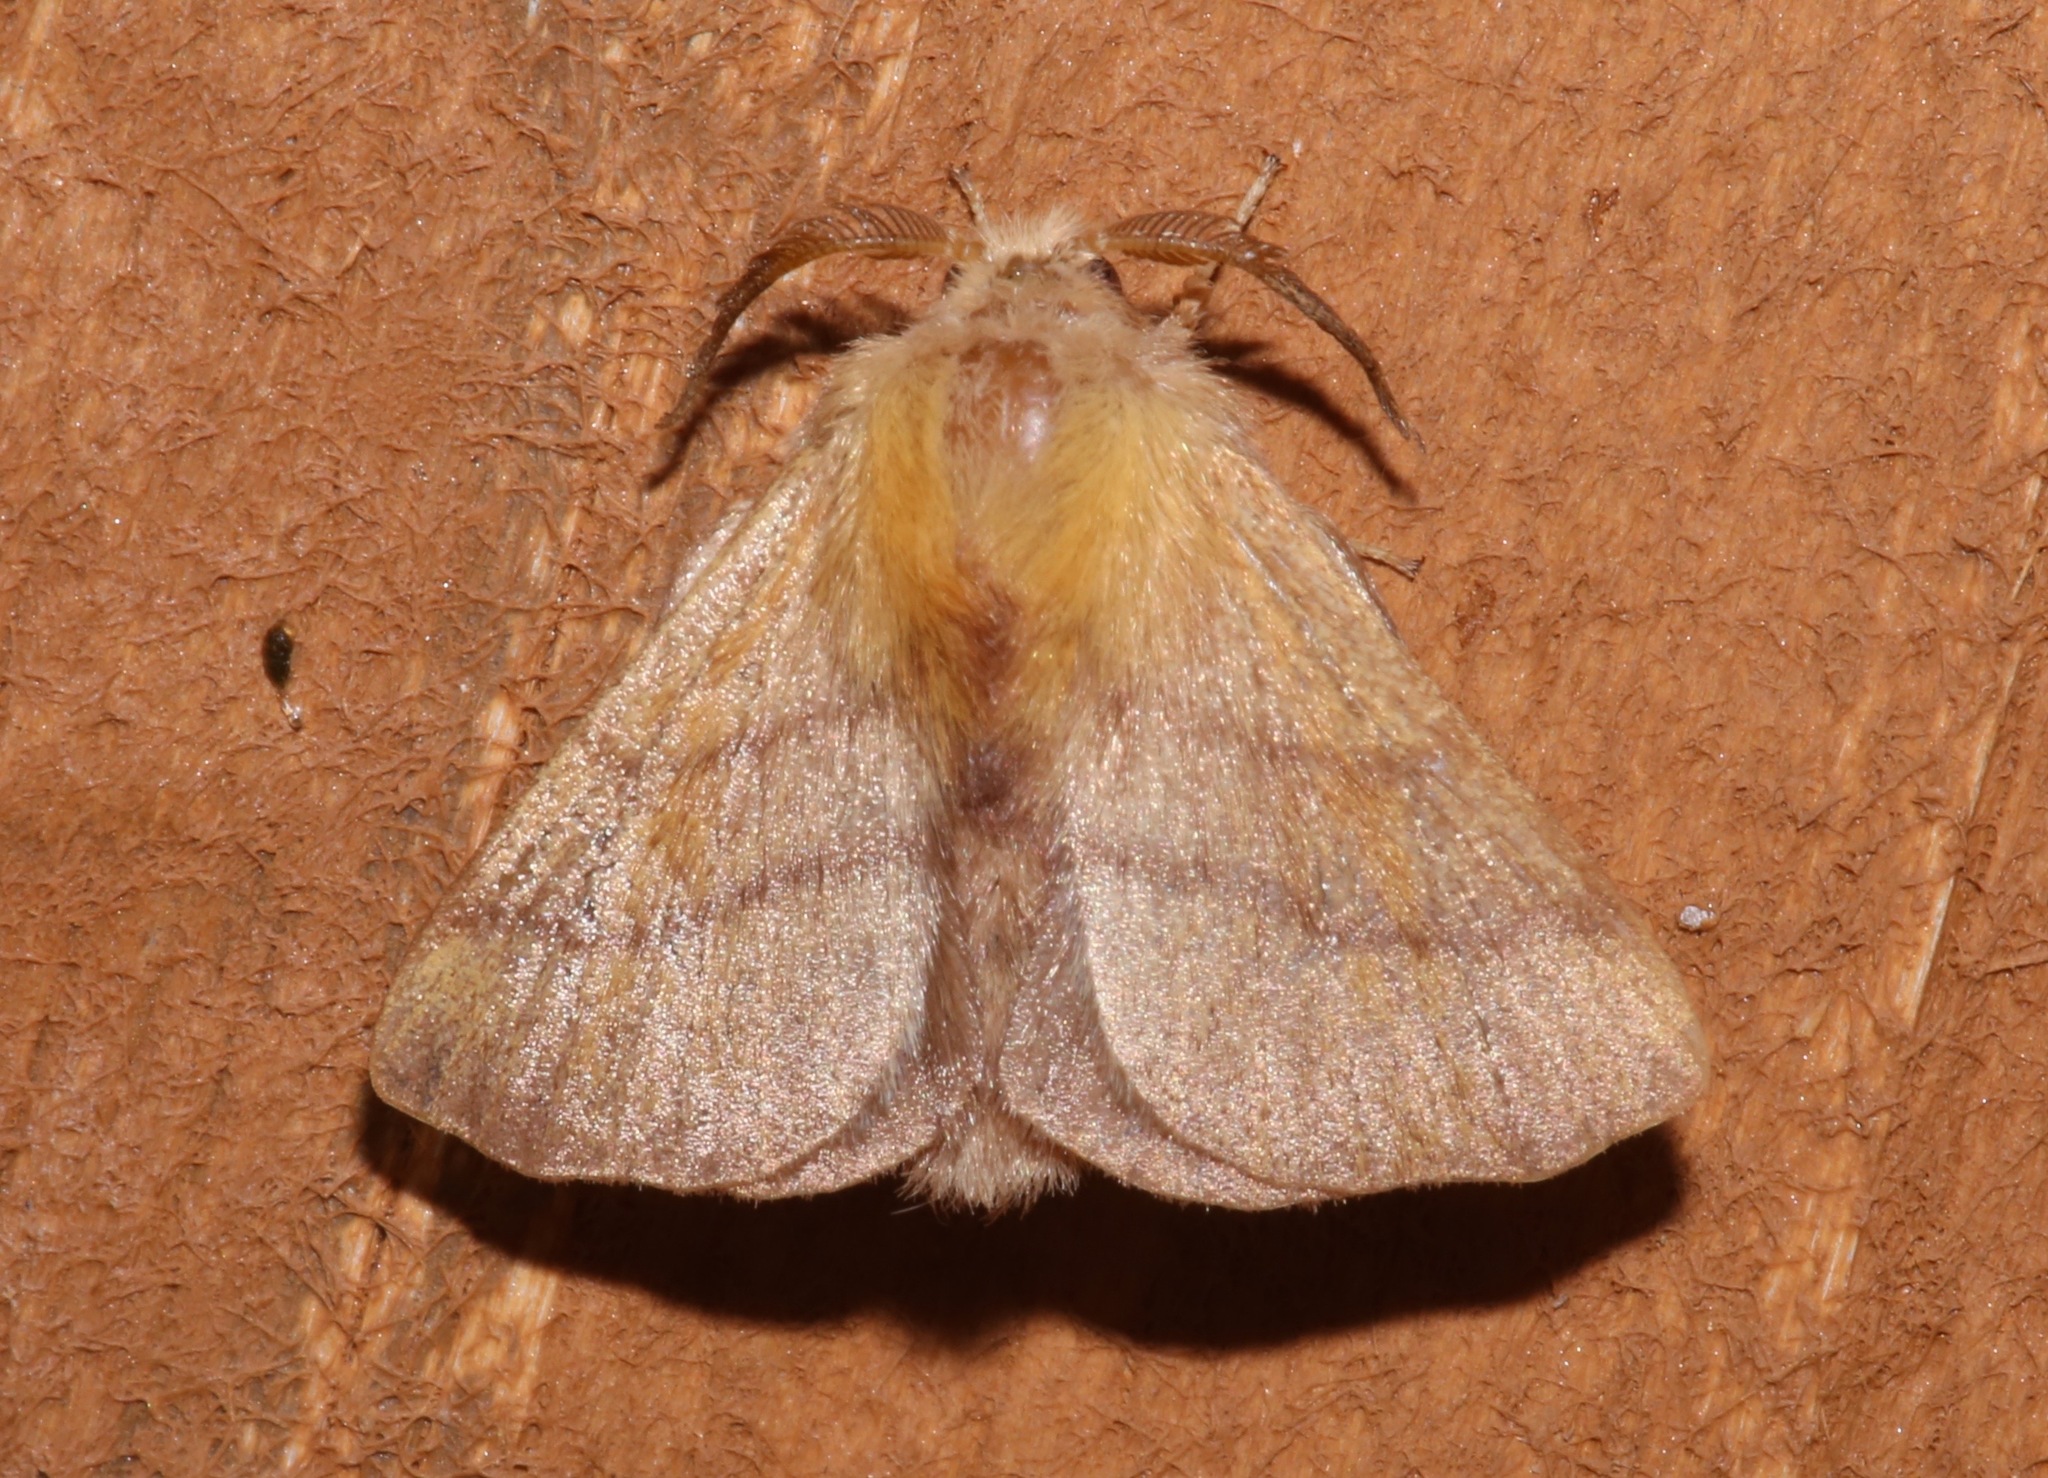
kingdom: Animalia
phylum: Arthropoda
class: Insecta
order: Lepidoptera
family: Lasiocampidae
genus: Malacosoma
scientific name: Malacosoma disstria
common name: Forest tent caterpillar
